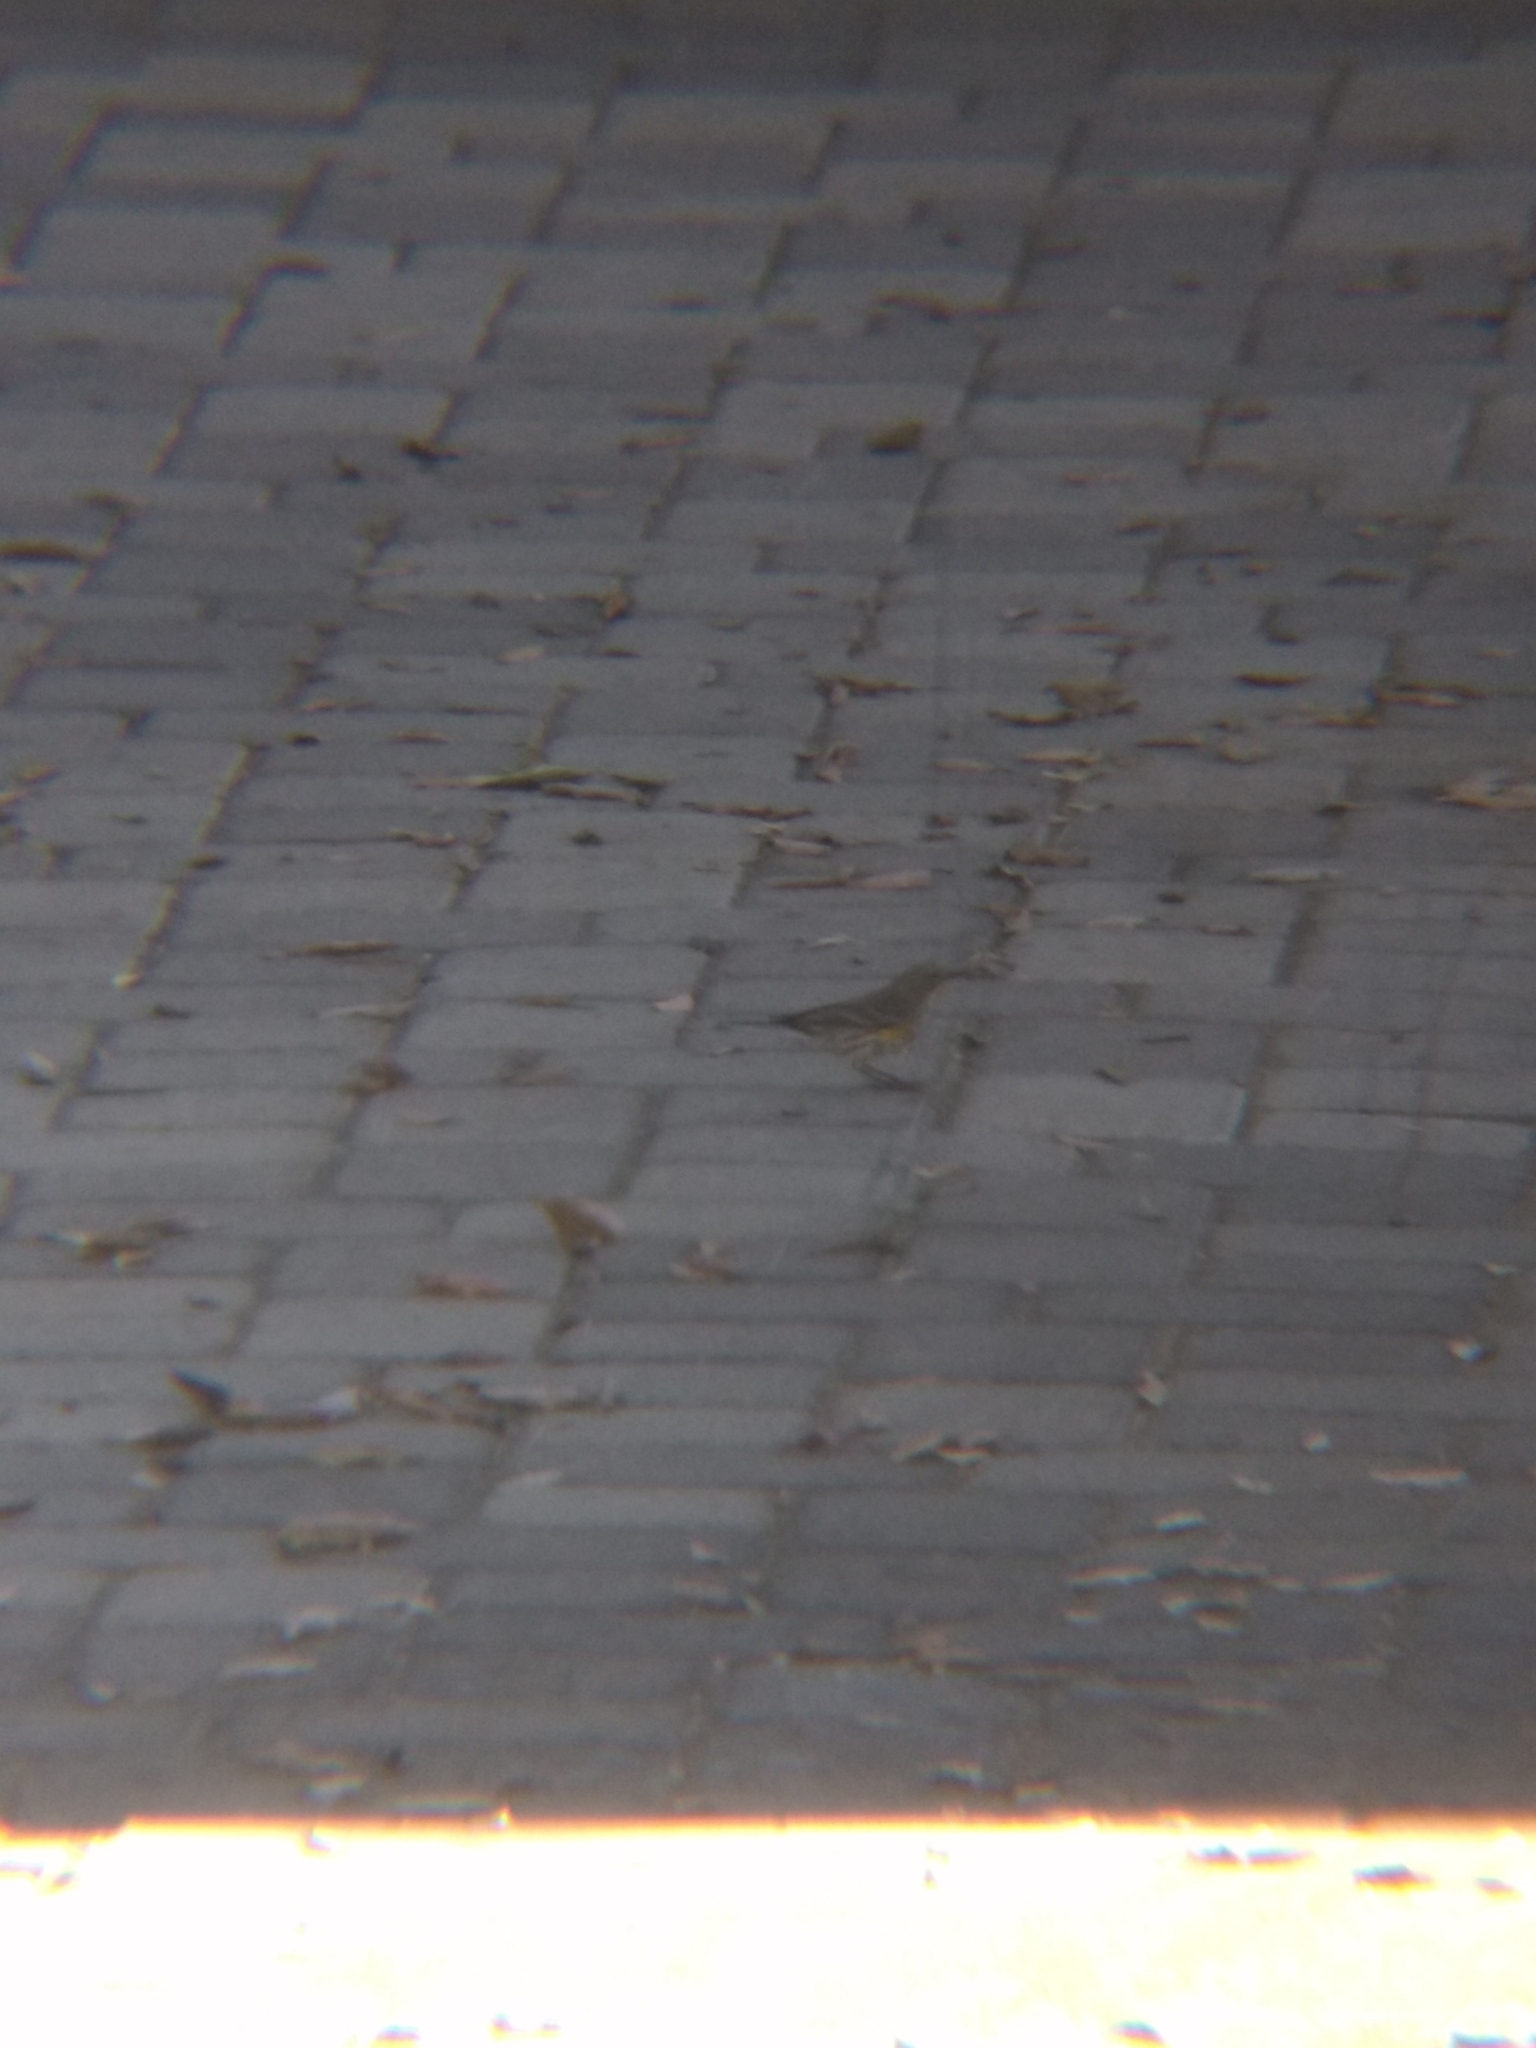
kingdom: Animalia
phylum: Chordata
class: Aves
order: Passeriformes
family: Parulidae
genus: Setophaga
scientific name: Setophaga coronata
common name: Myrtle warbler
